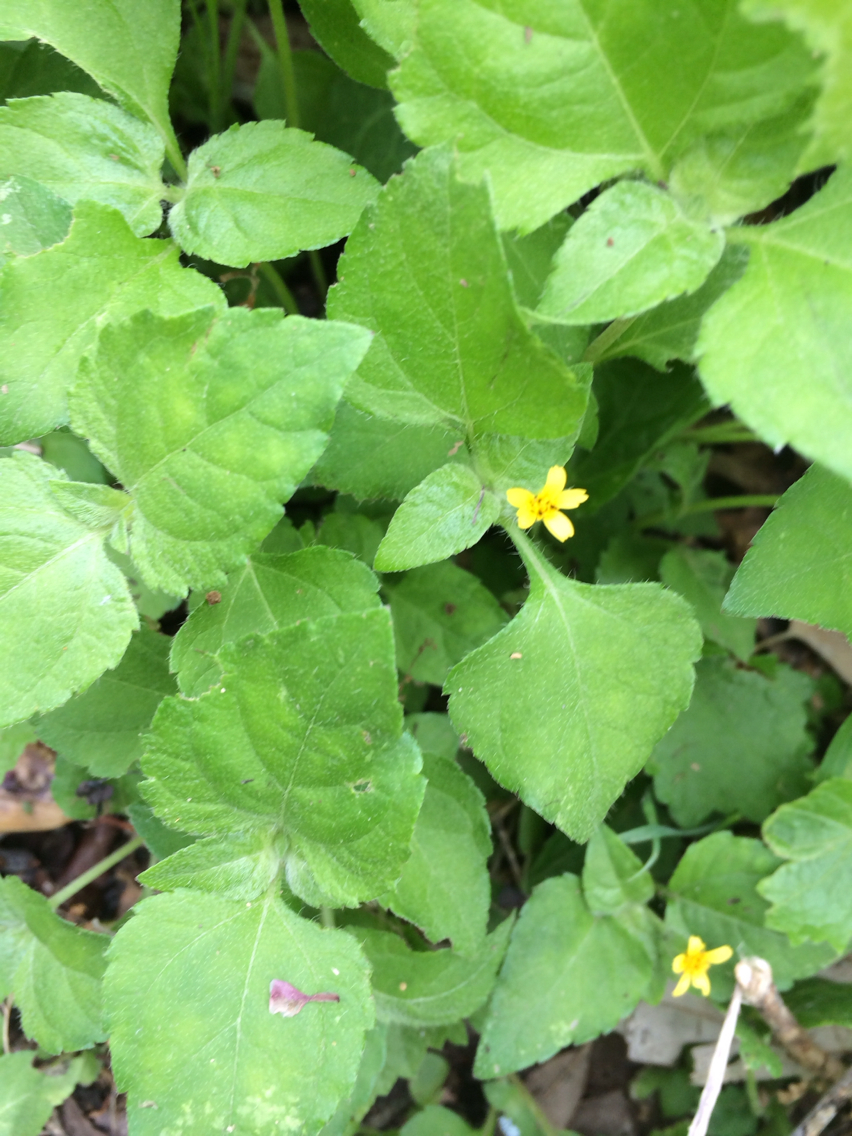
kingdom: Plantae
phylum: Tracheophyta
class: Magnoliopsida
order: Asterales
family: Asteraceae
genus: Calyptocarpus
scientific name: Calyptocarpus vialis
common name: Straggler daisy
